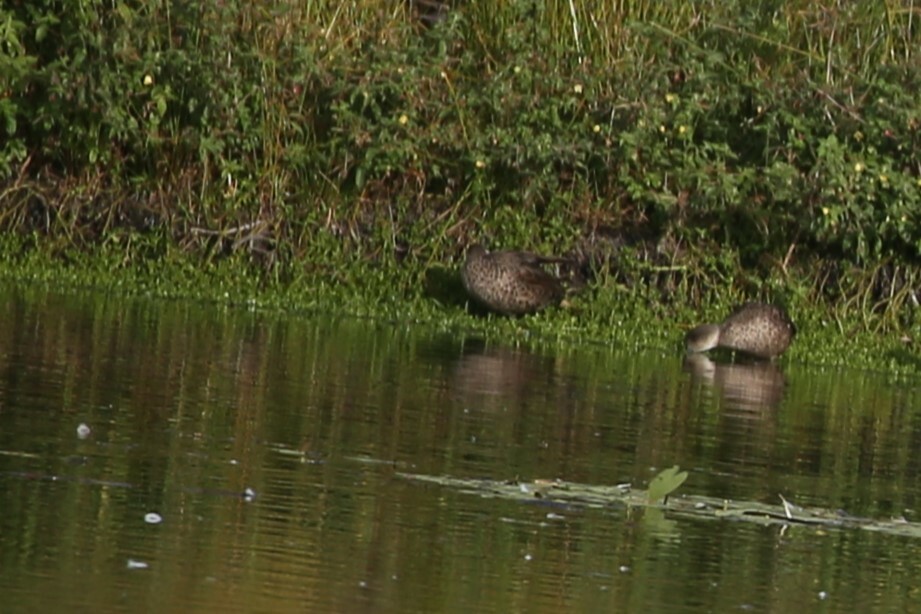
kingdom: Animalia
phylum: Chordata
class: Aves
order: Anseriformes
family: Anatidae
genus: Anas
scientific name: Anas gracilis
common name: Grey teal
